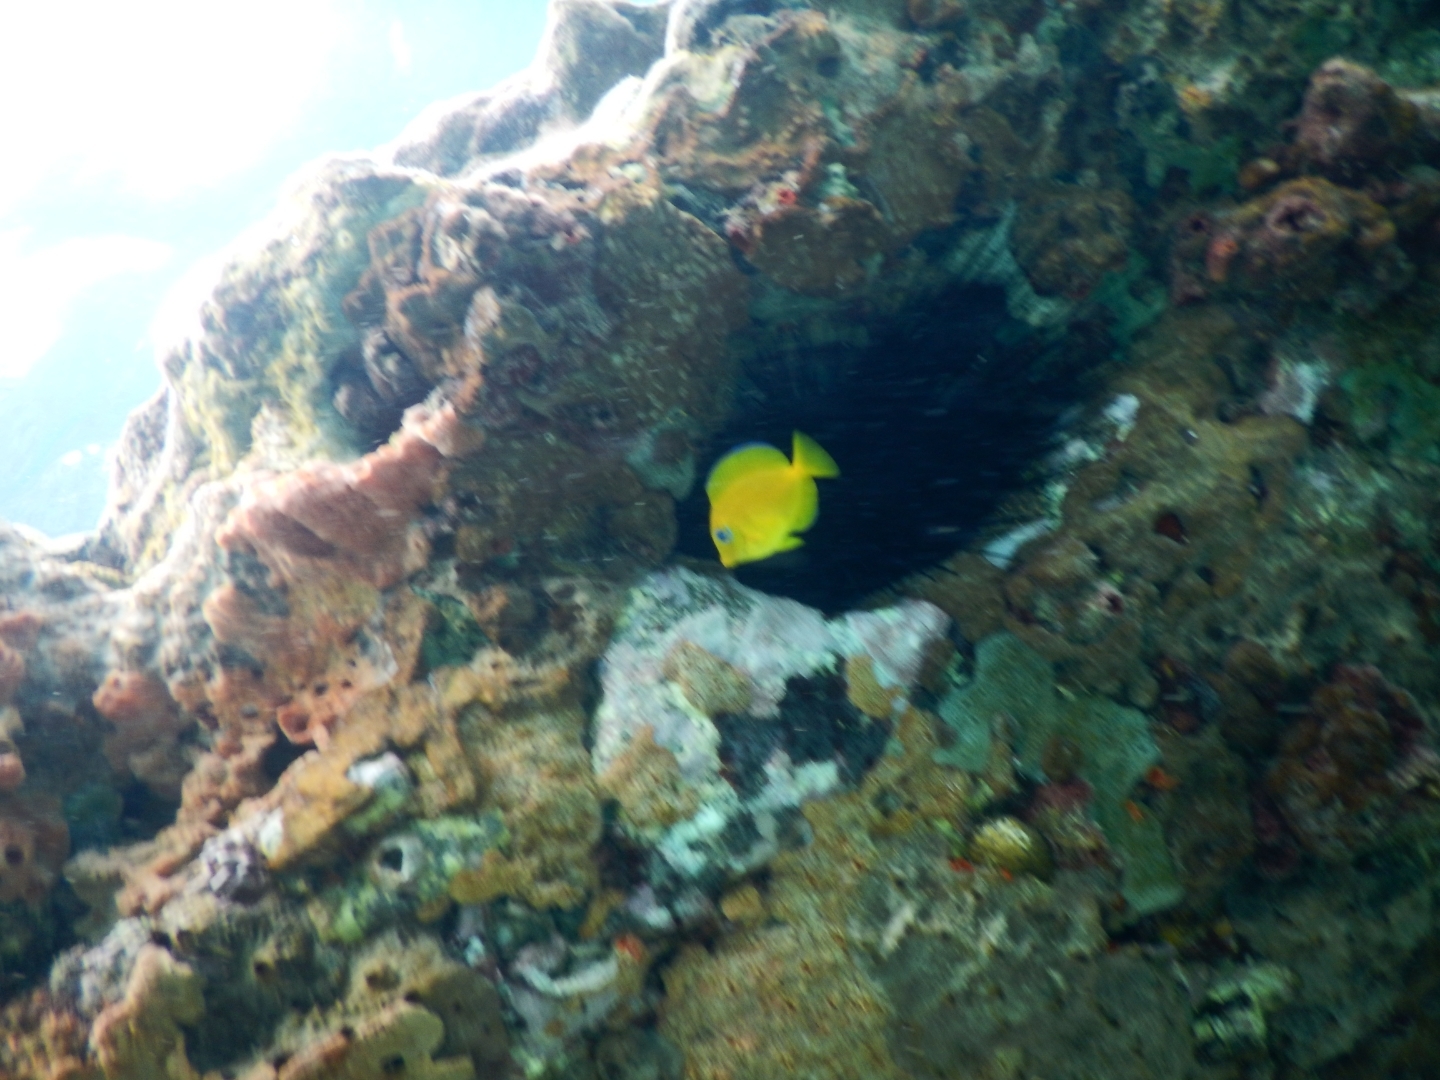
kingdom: Animalia
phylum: Chordata
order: Perciformes
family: Acanthuridae
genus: Acanthurus
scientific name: Acanthurus coeruleus
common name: Blue tang
